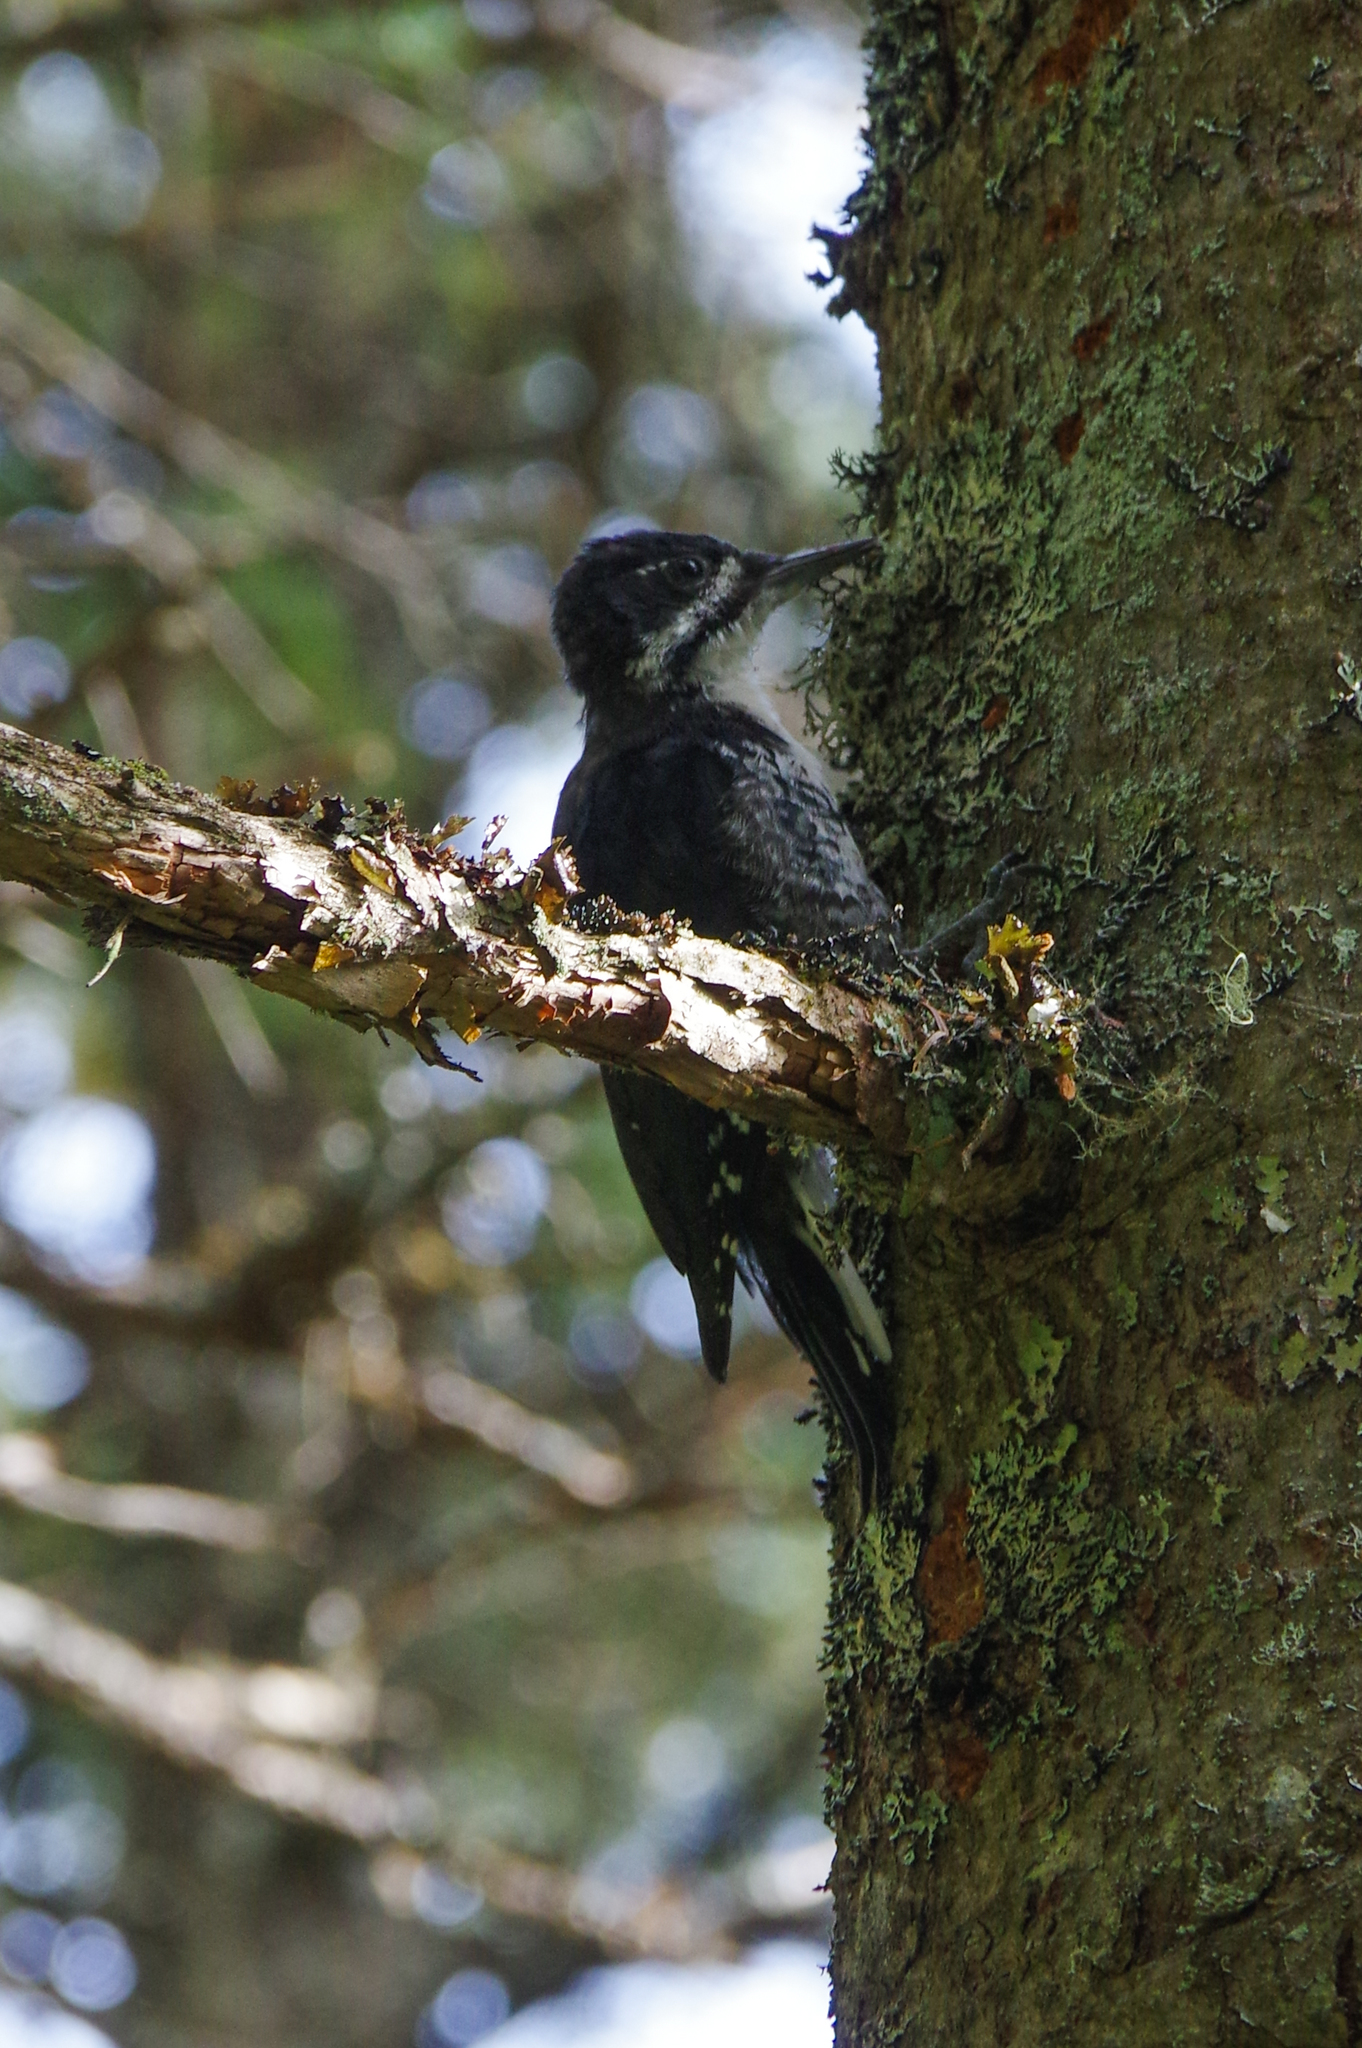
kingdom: Animalia
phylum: Chordata
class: Aves
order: Piciformes
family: Picidae
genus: Picoides
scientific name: Picoides arcticus
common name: Black-backed woodpecker
